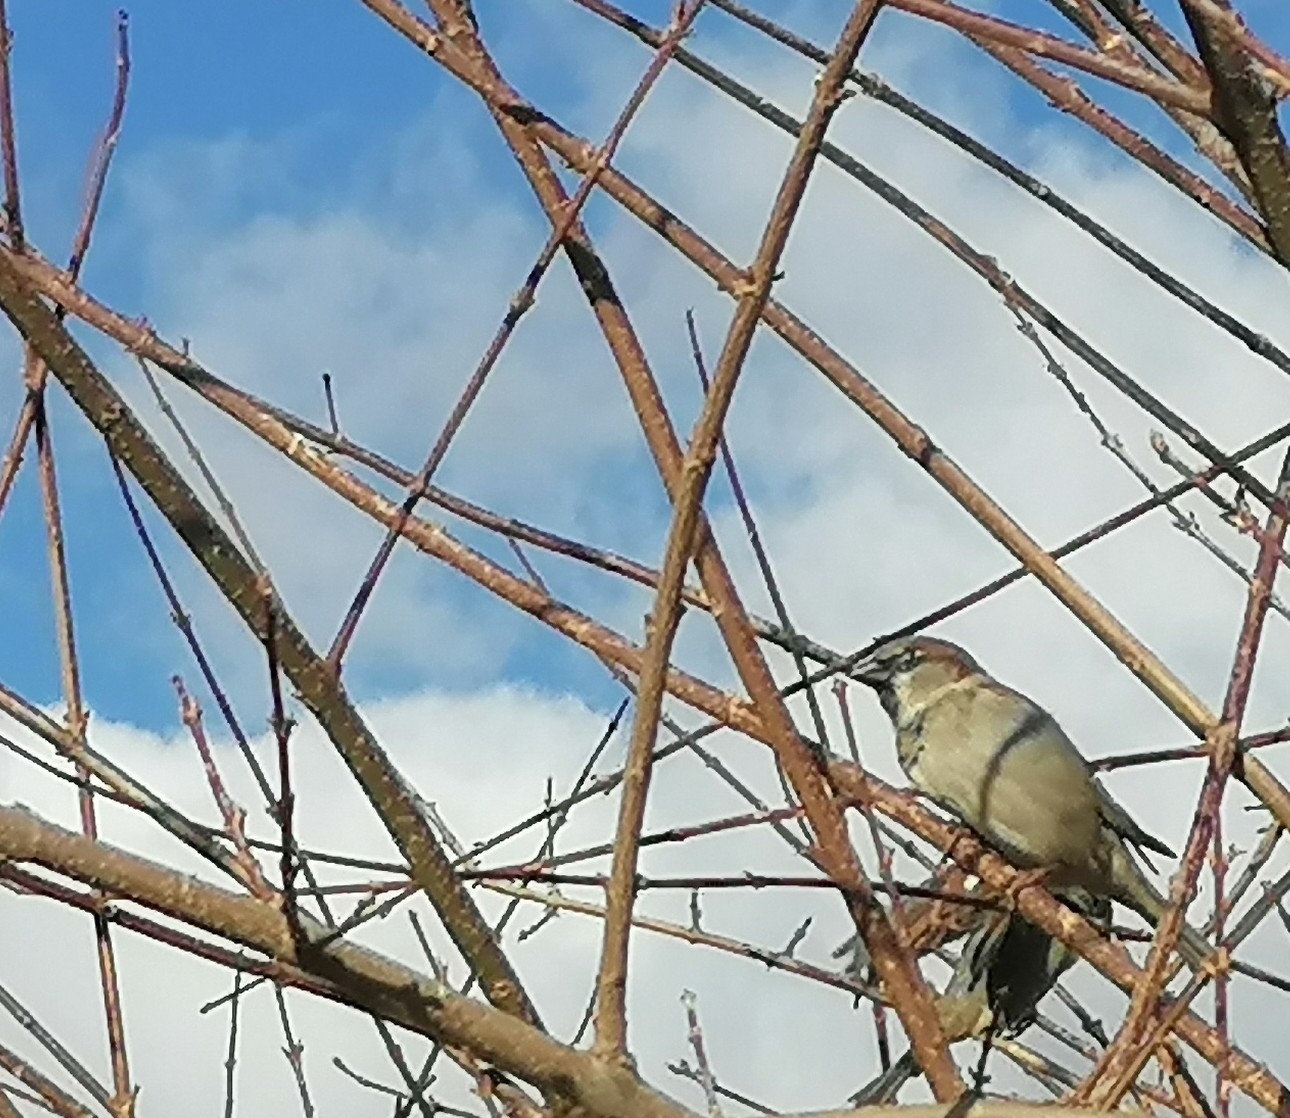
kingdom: Animalia
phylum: Chordata
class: Aves
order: Passeriformes
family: Passeridae
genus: Passer
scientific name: Passer domesticus
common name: House sparrow
